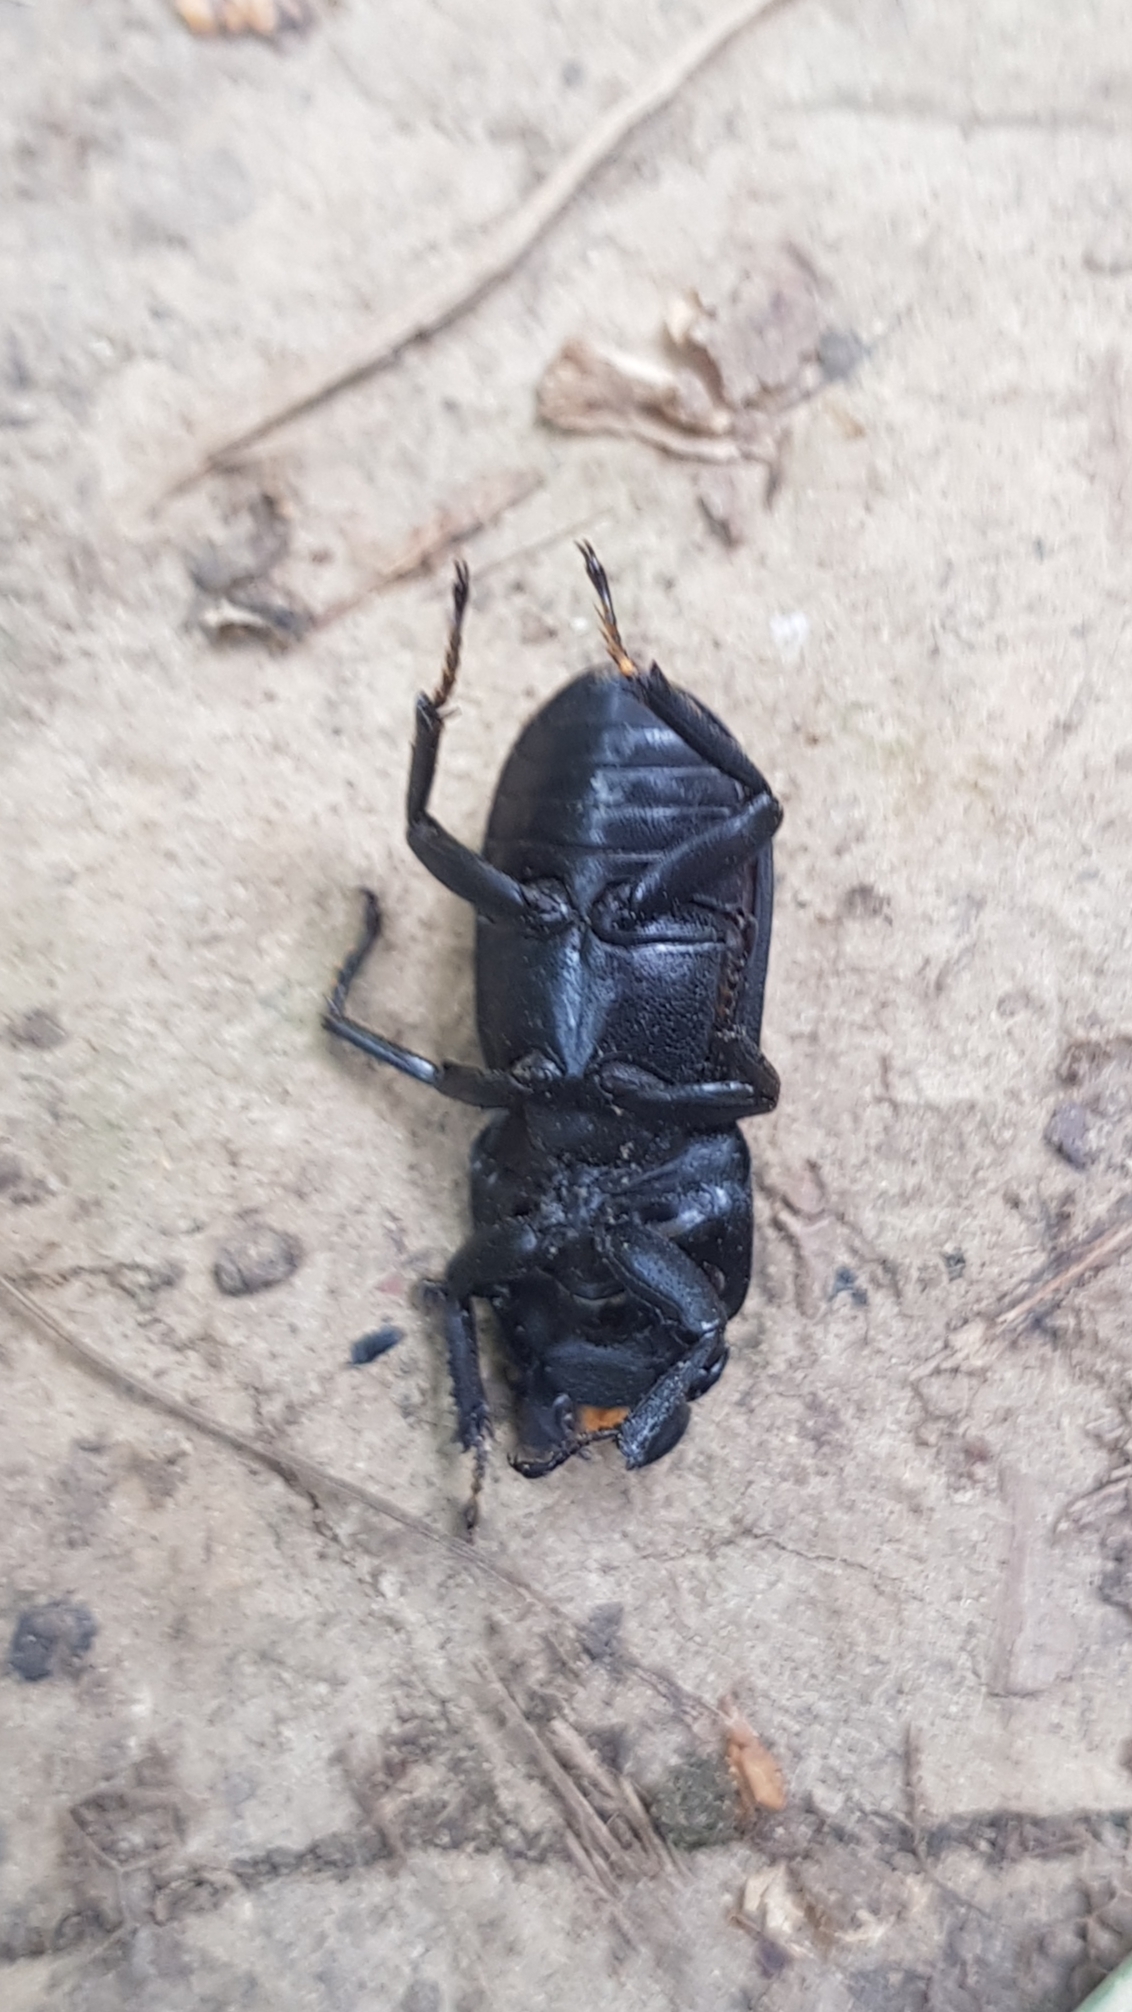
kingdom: Animalia
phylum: Arthropoda
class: Insecta
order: Coleoptera
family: Lucanidae
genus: Dorcus
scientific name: Dorcus parallelipipedus
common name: Lesser stag beetle
